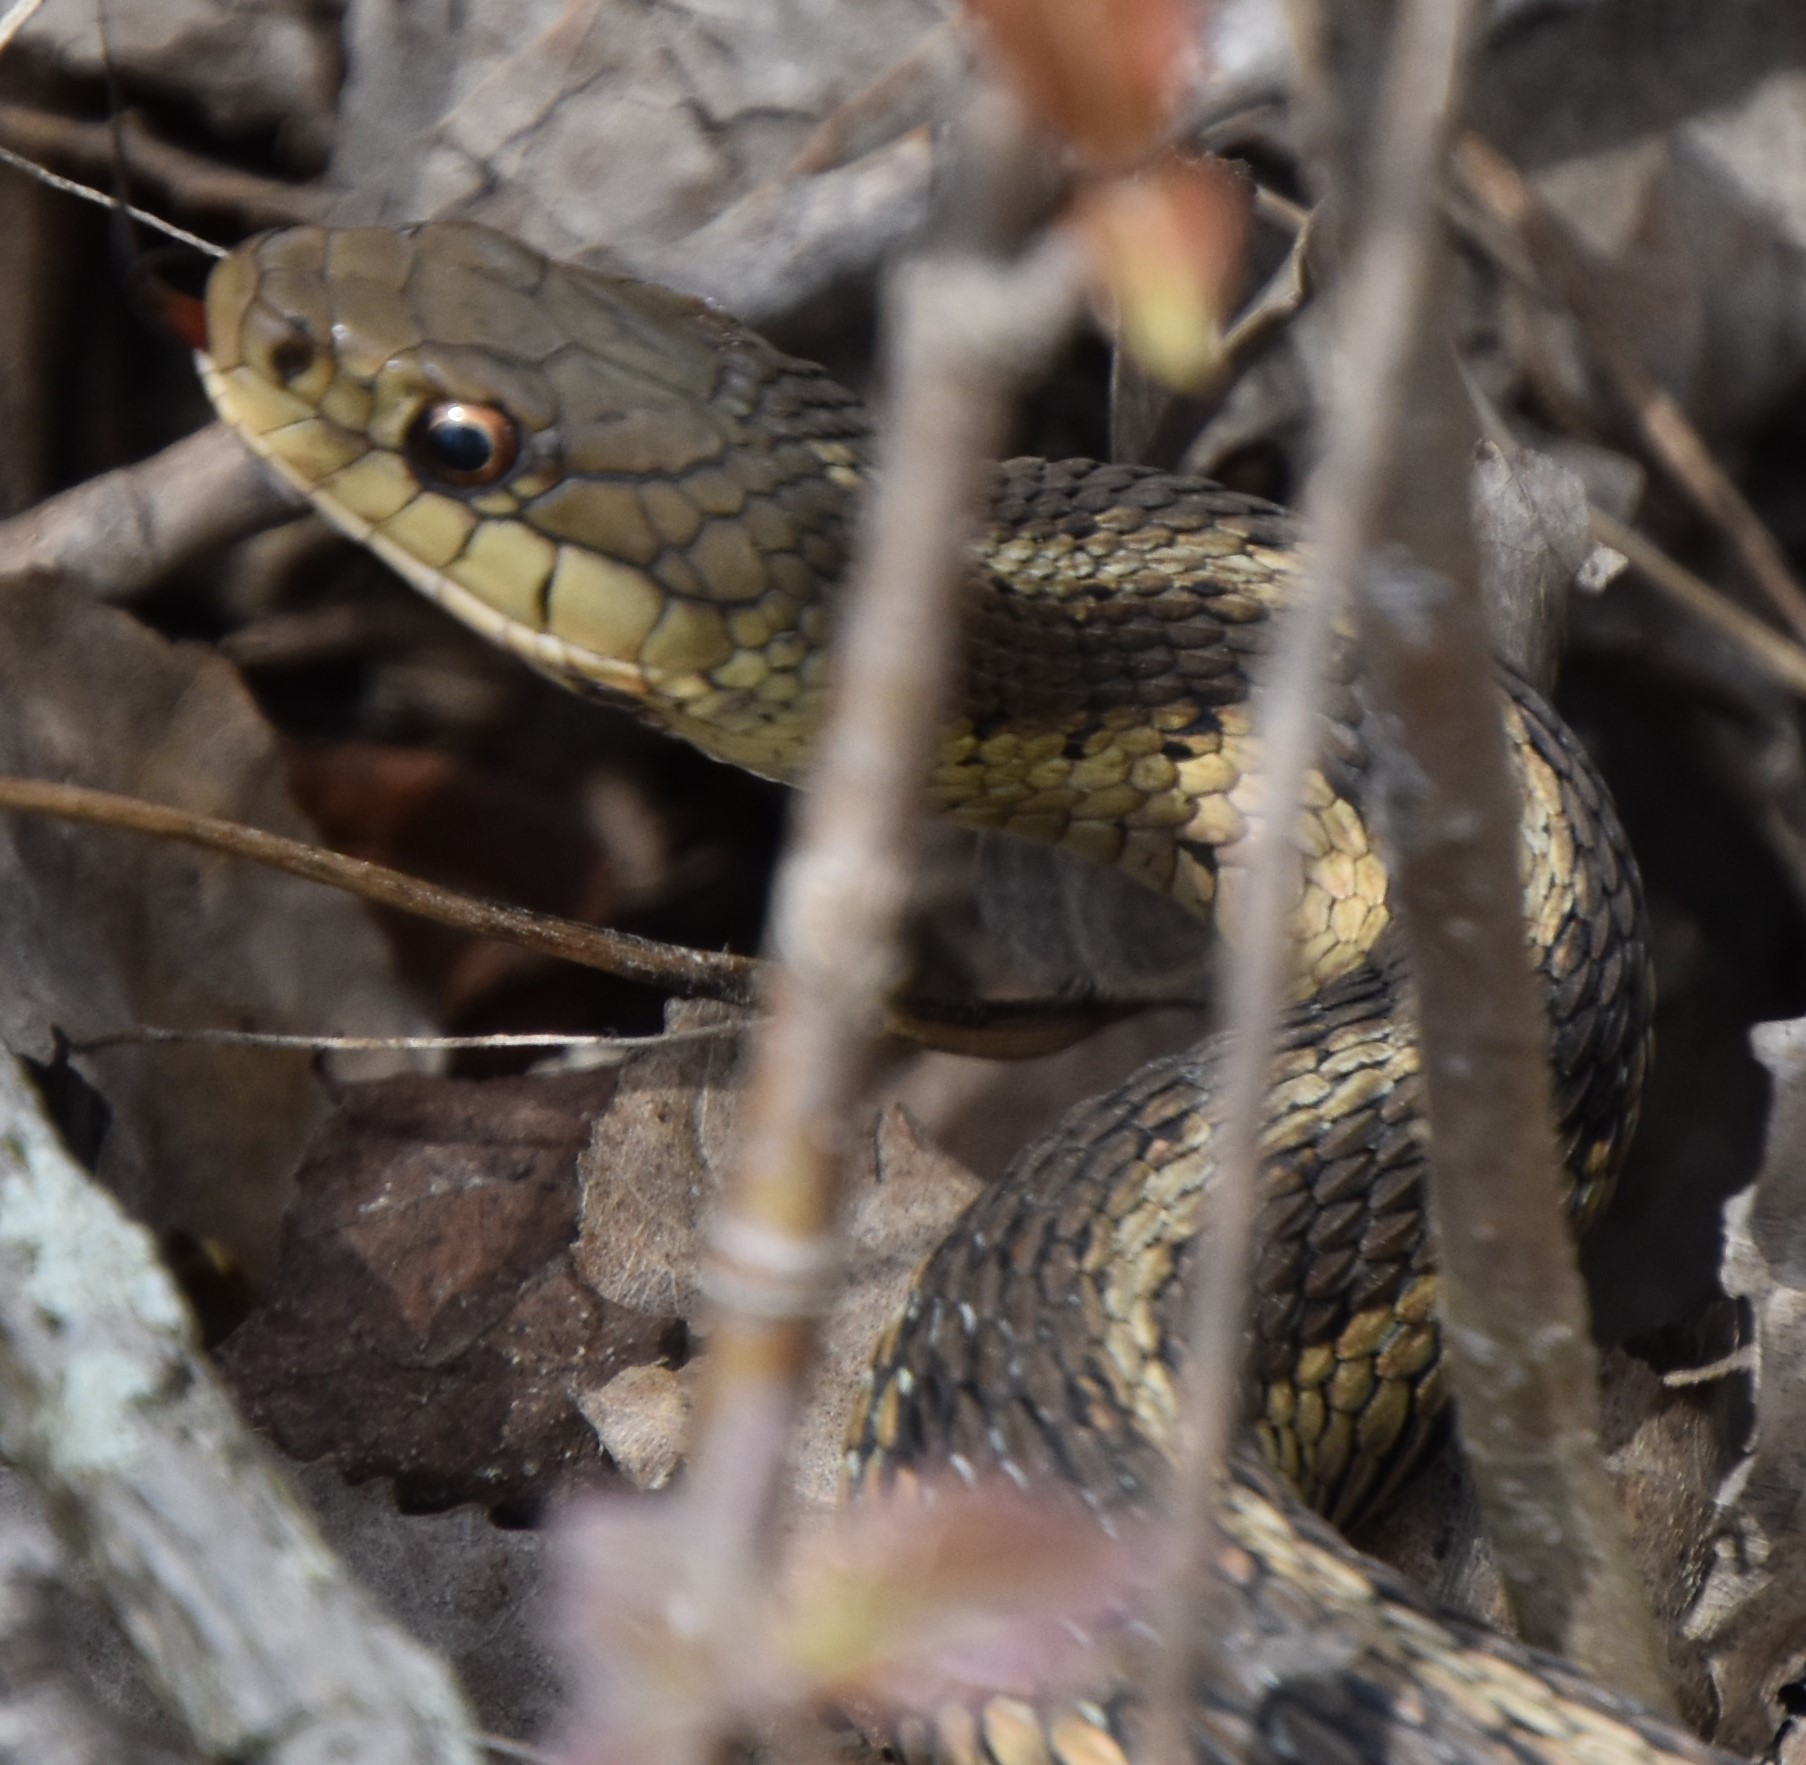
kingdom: Animalia
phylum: Chordata
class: Squamata
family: Colubridae
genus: Thamnophis
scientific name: Thamnophis sirtalis
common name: Common garter snake
